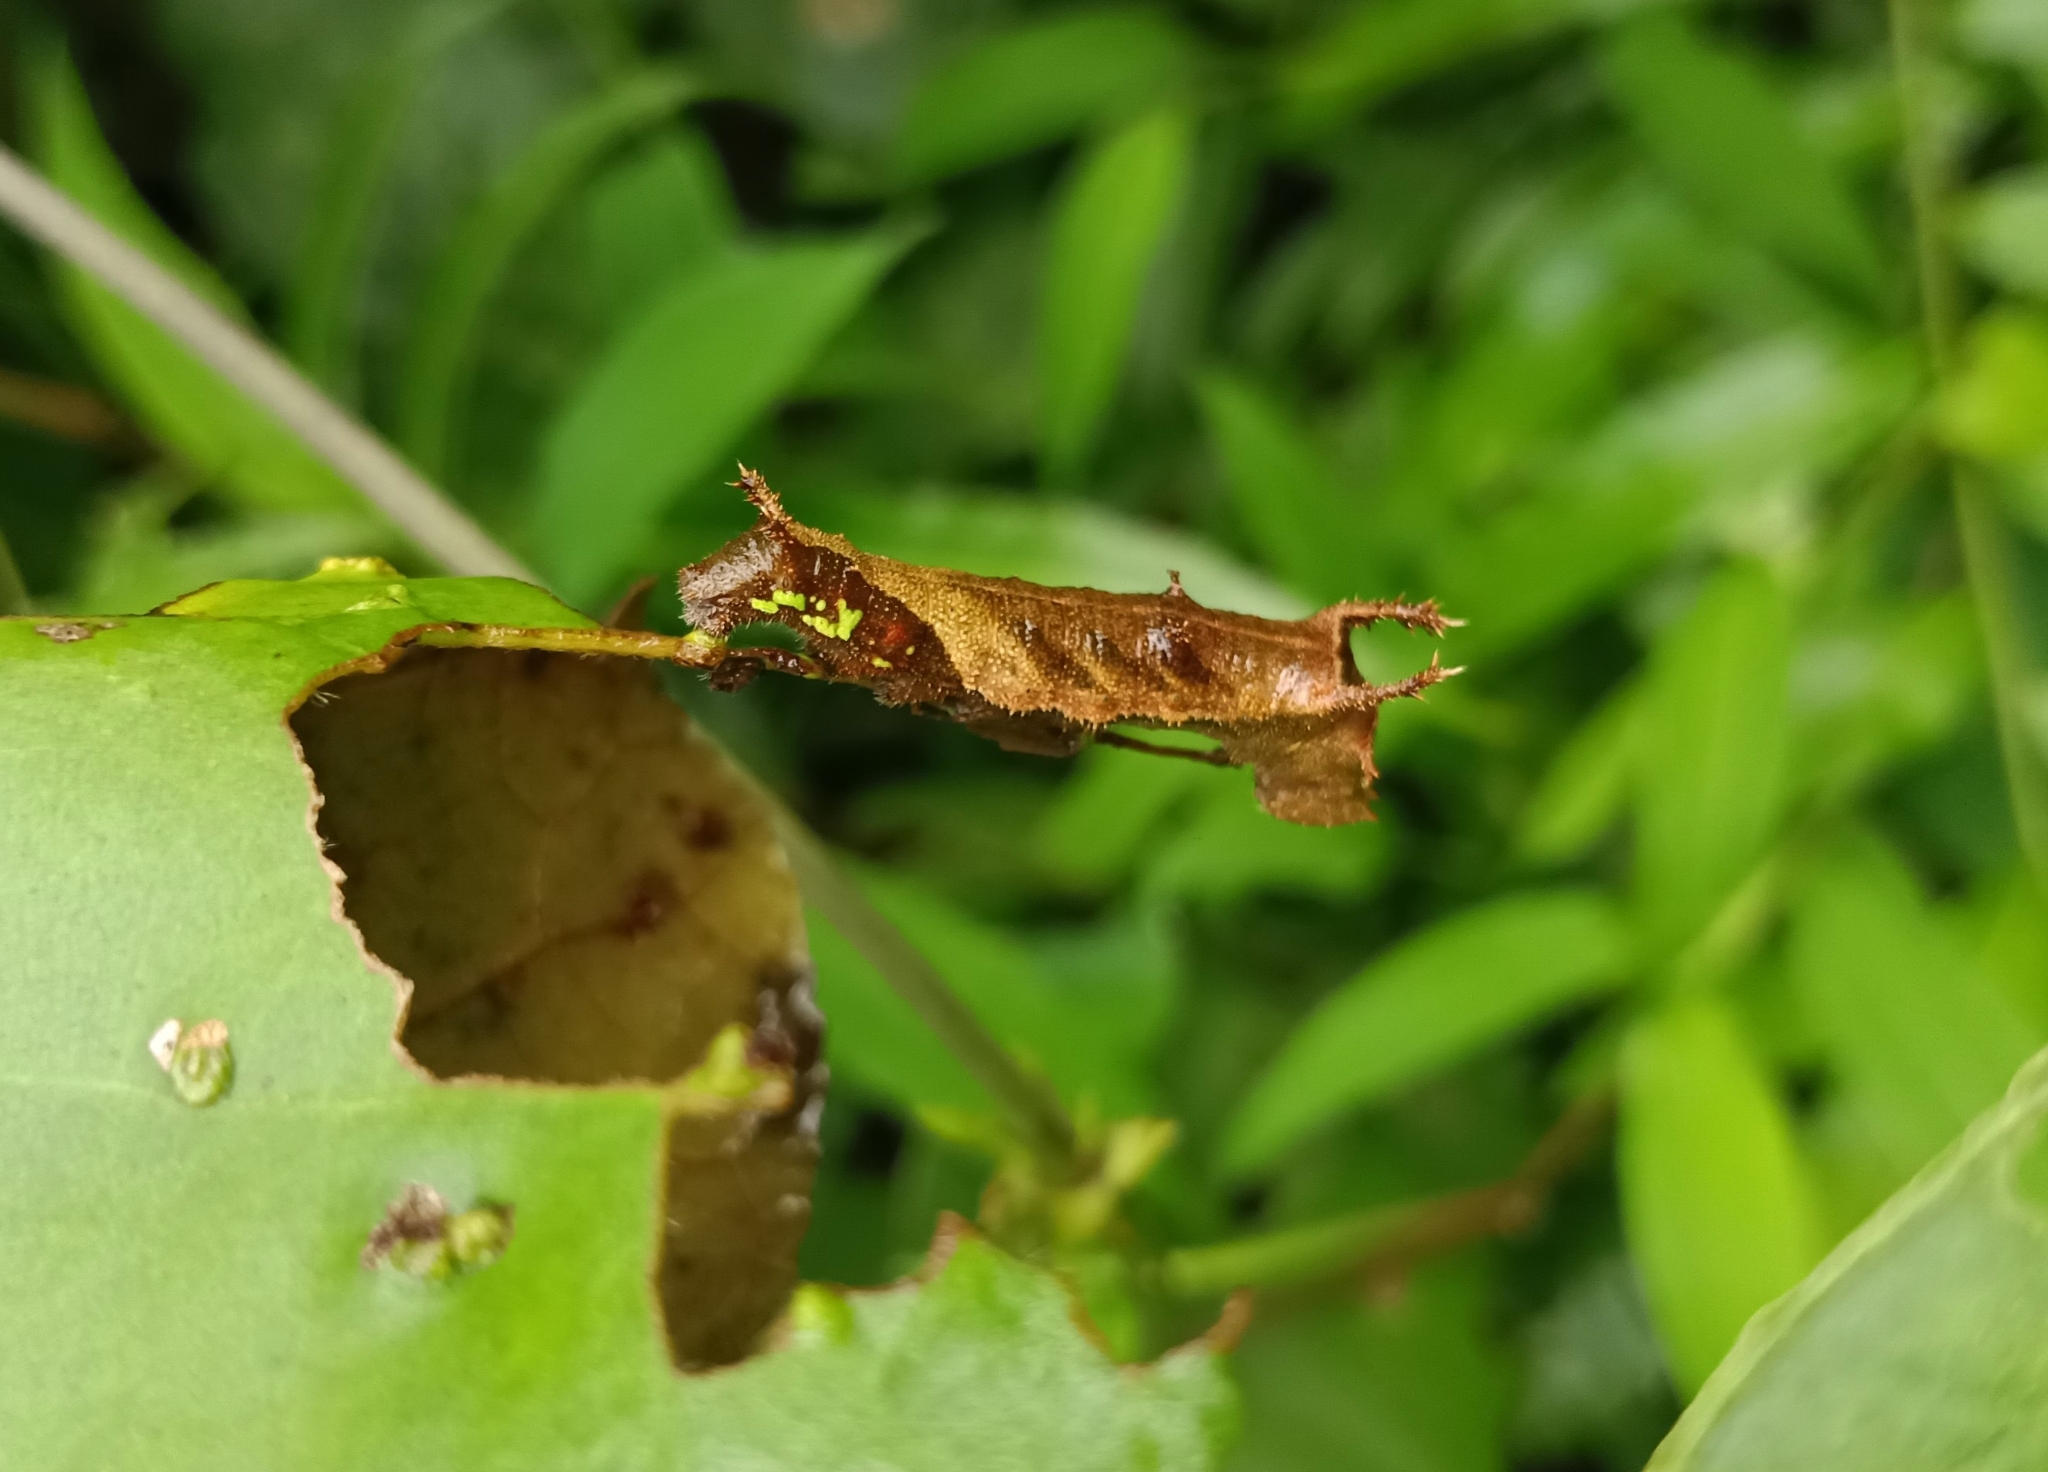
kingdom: Animalia
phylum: Arthropoda
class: Insecta
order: Lepidoptera
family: Nymphalidae
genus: Neptis
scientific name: Neptis jumbah
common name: Chestnut-streaked sailer
